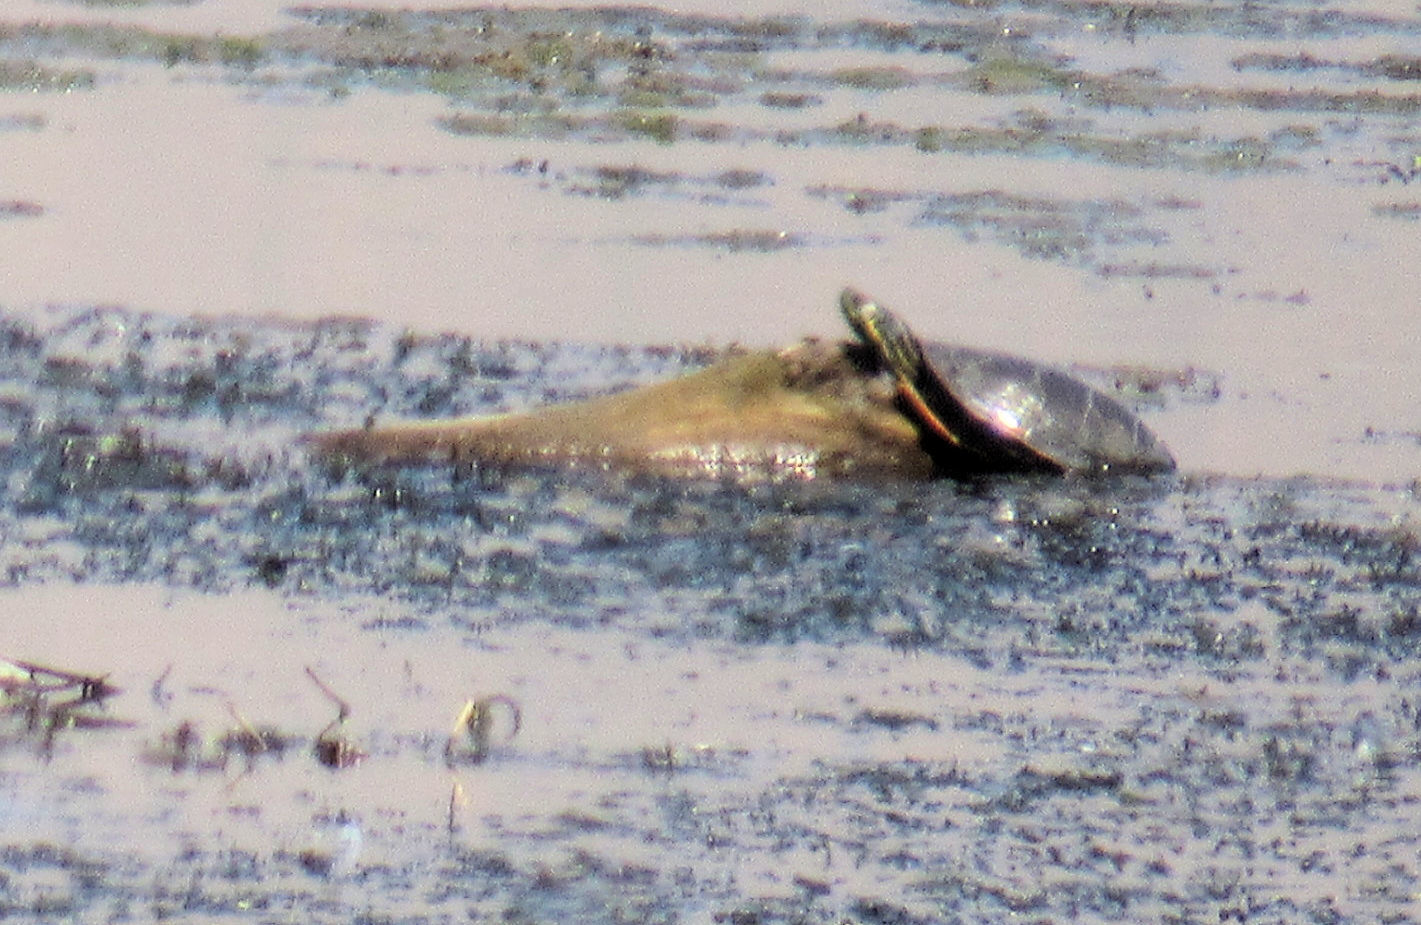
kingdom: Animalia
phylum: Chordata
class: Testudines
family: Emydidae
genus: Chrysemys
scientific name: Chrysemys picta
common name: Painted turtle
